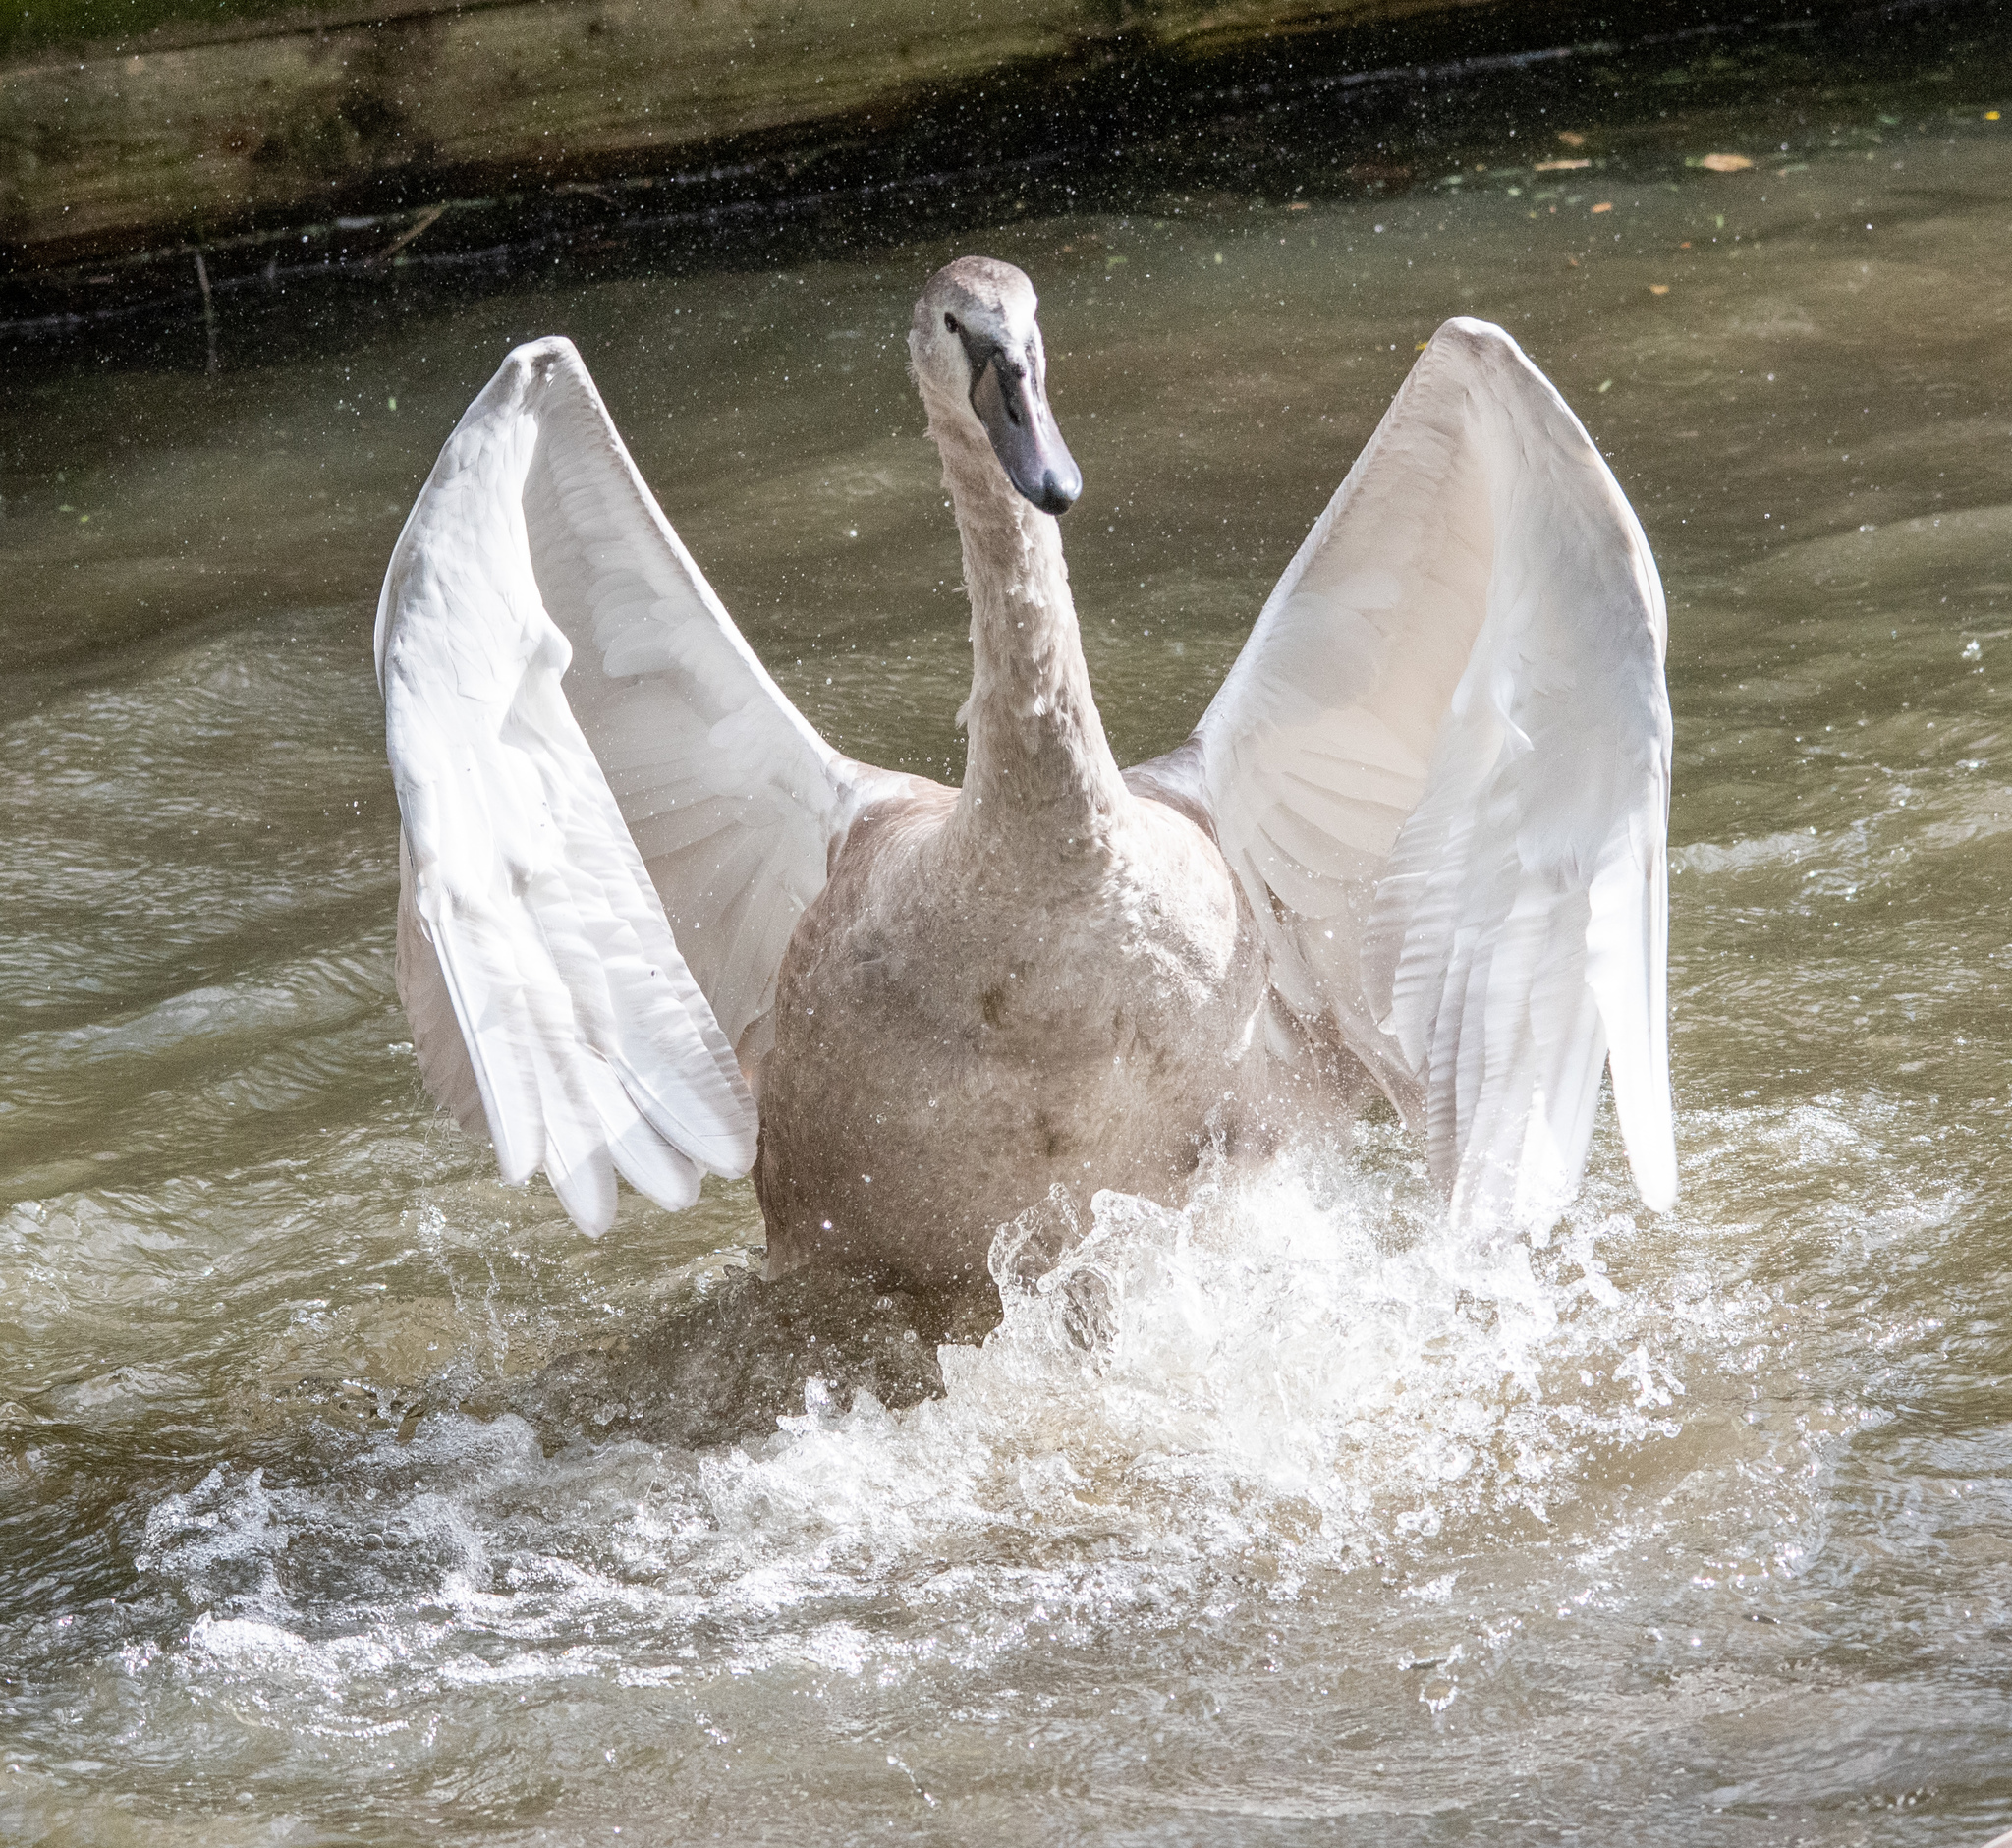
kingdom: Animalia
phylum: Chordata
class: Aves
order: Anseriformes
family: Anatidae
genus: Cygnus
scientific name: Cygnus olor
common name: Mute swan
